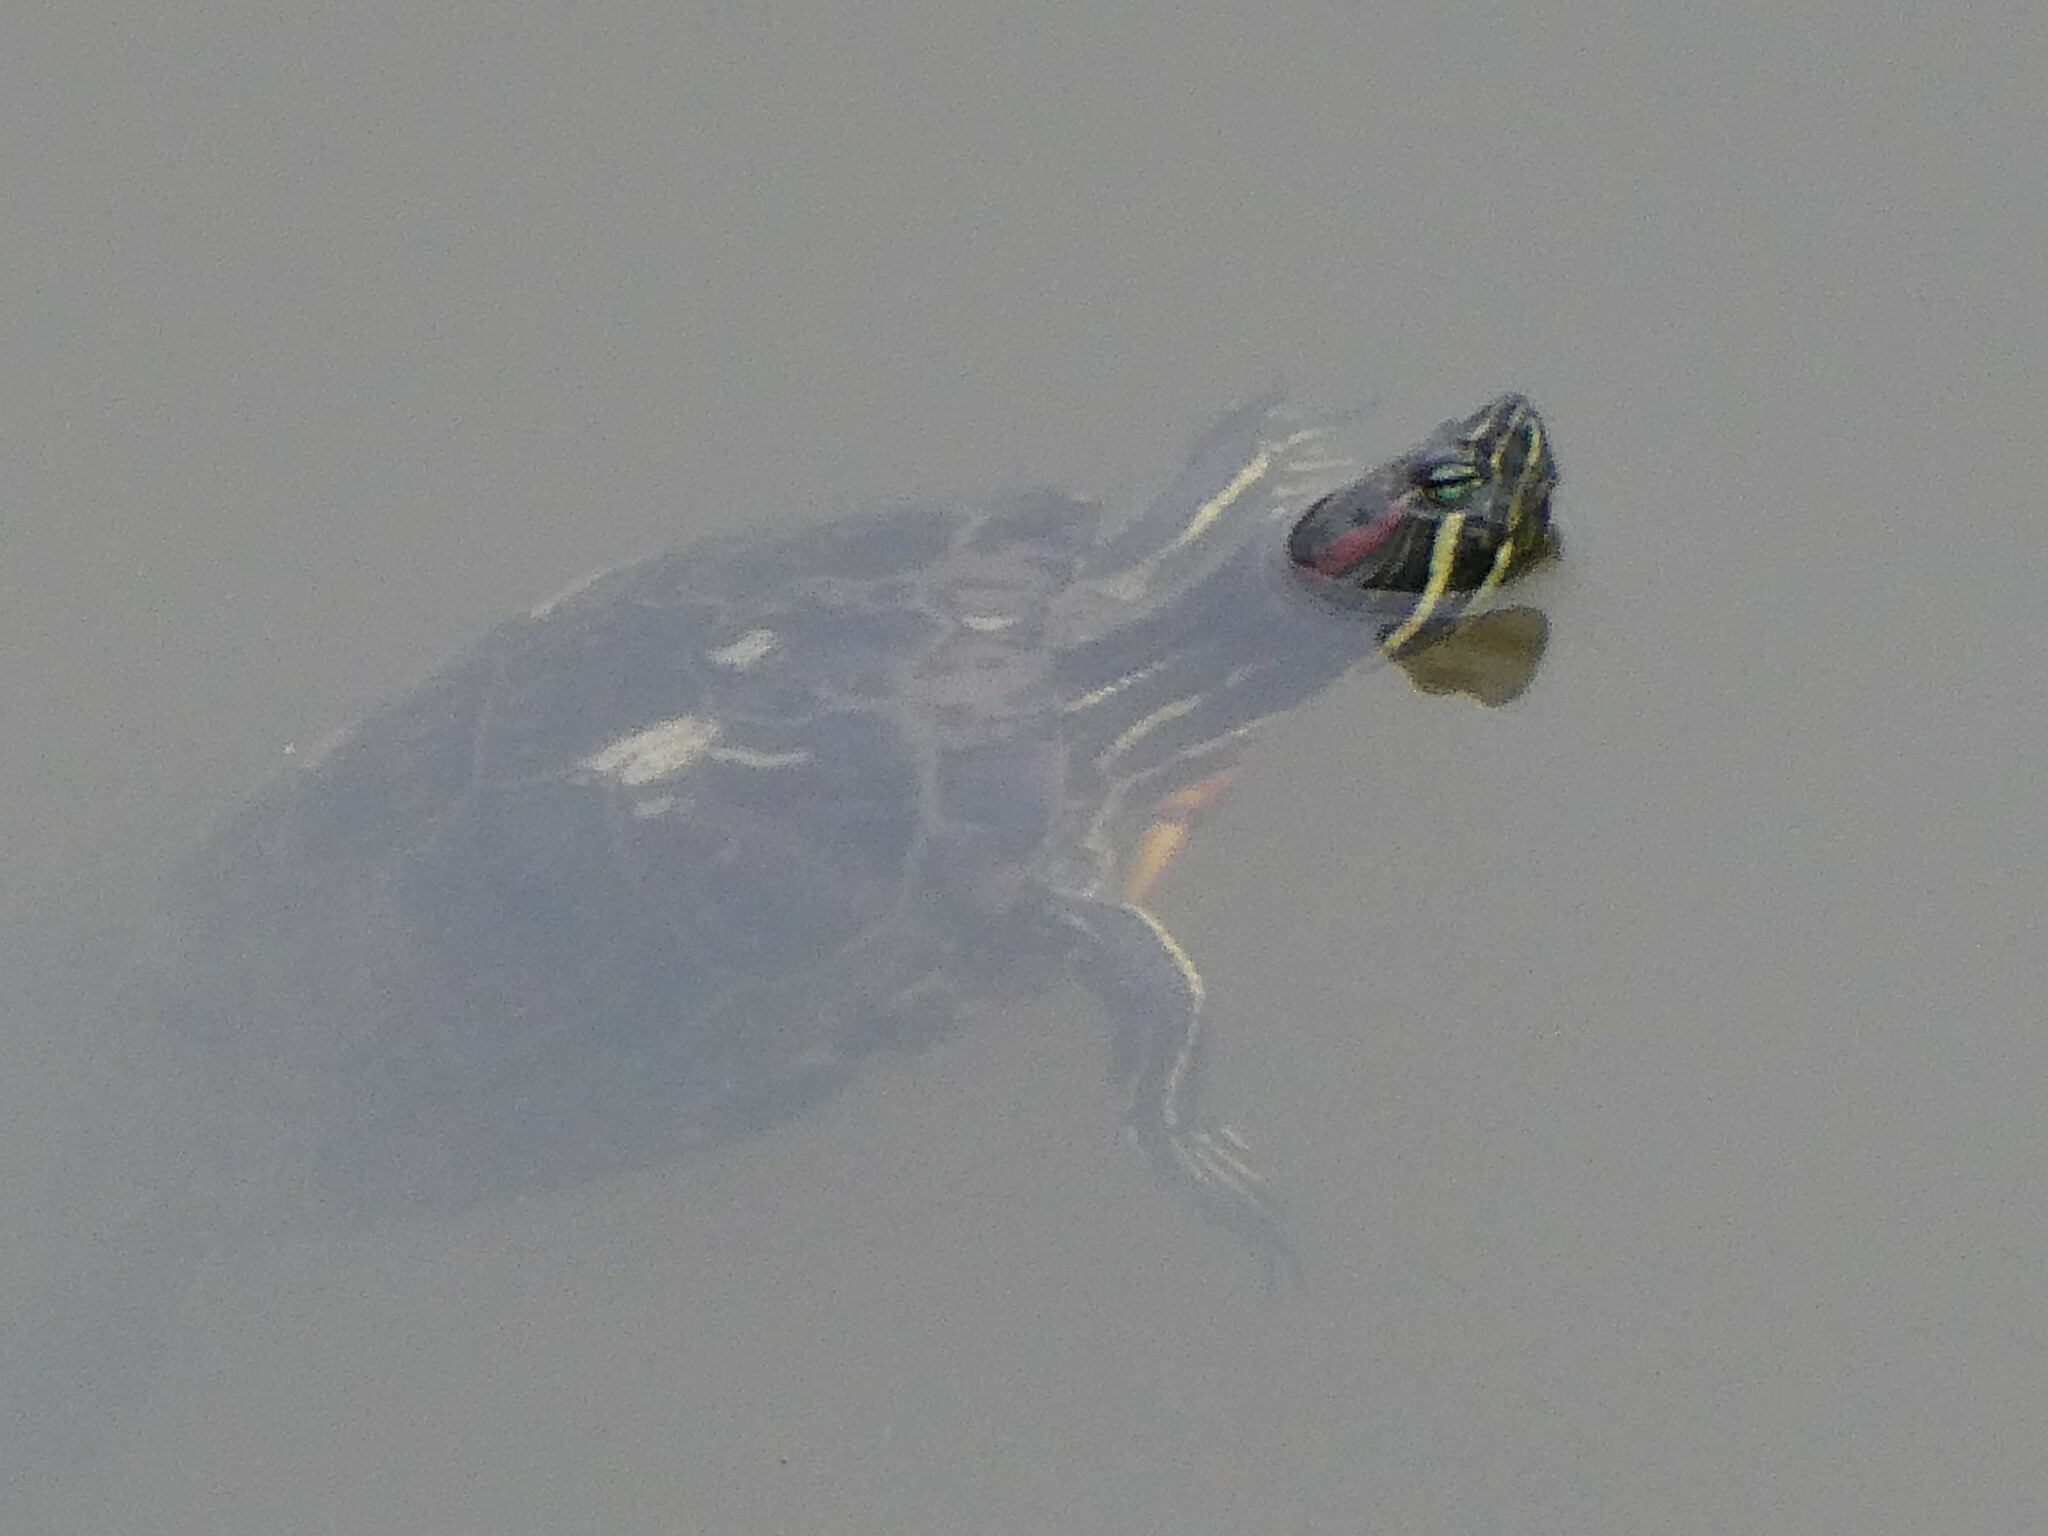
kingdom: Animalia
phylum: Chordata
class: Testudines
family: Emydidae
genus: Trachemys
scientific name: Trachemys scripta
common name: Slider
